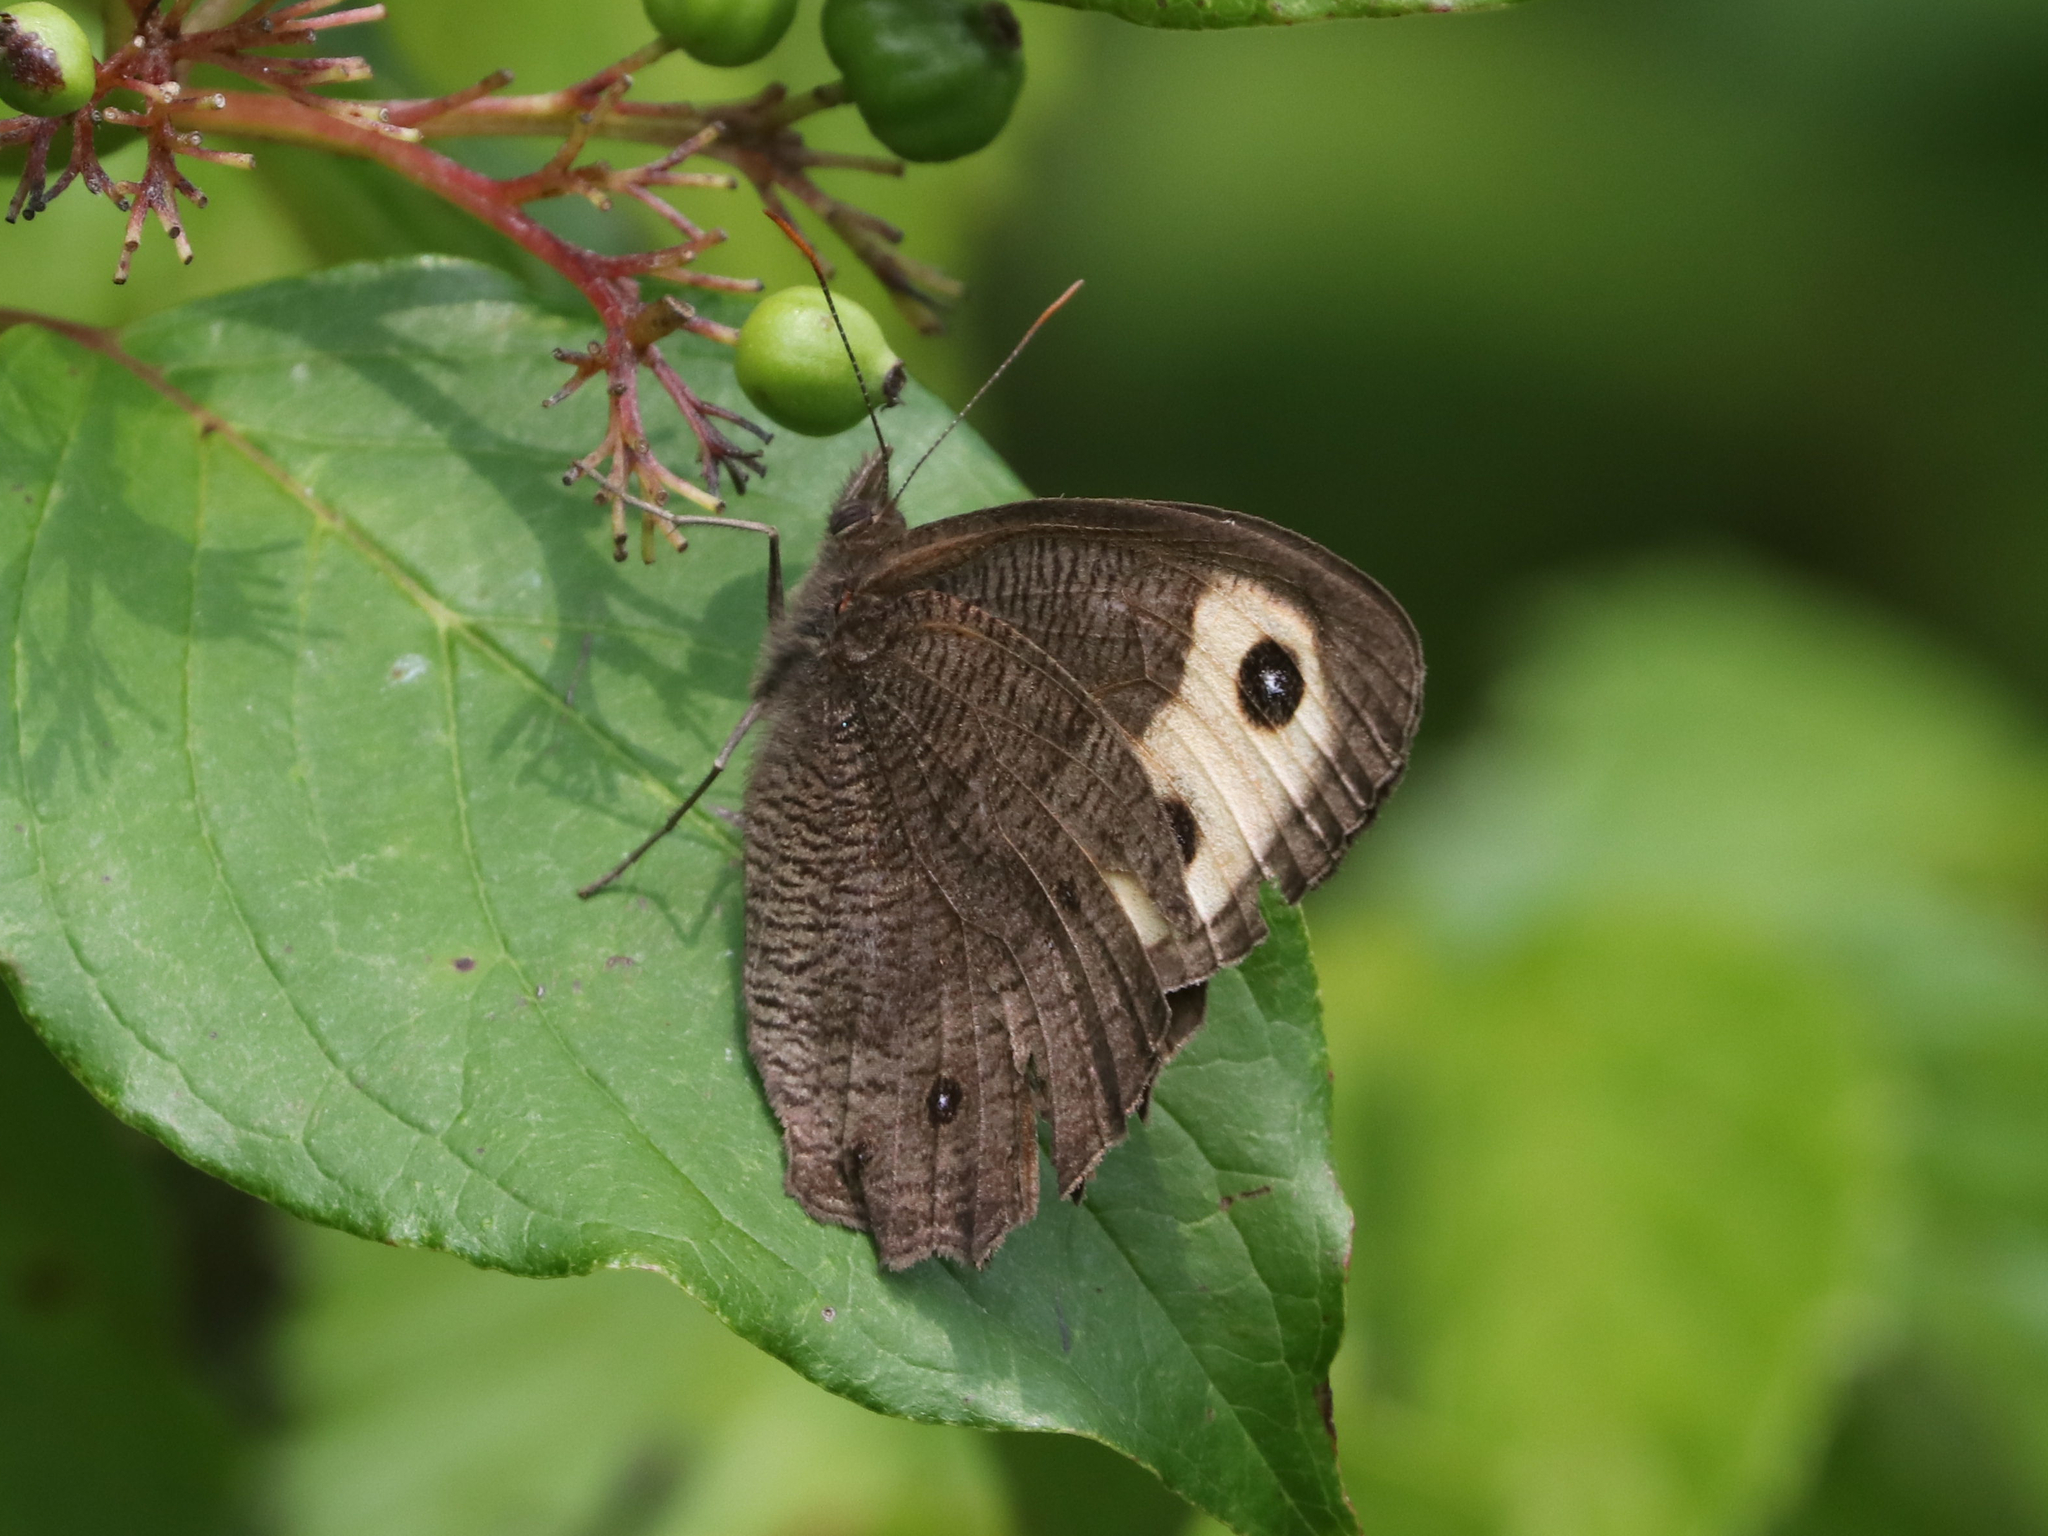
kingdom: Animalia
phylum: Arthropoda
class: Insecta
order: Lepidoptera
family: Nymphalidae
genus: Cercyonis
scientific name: Cercyonis pegala
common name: Common wood-nymph
